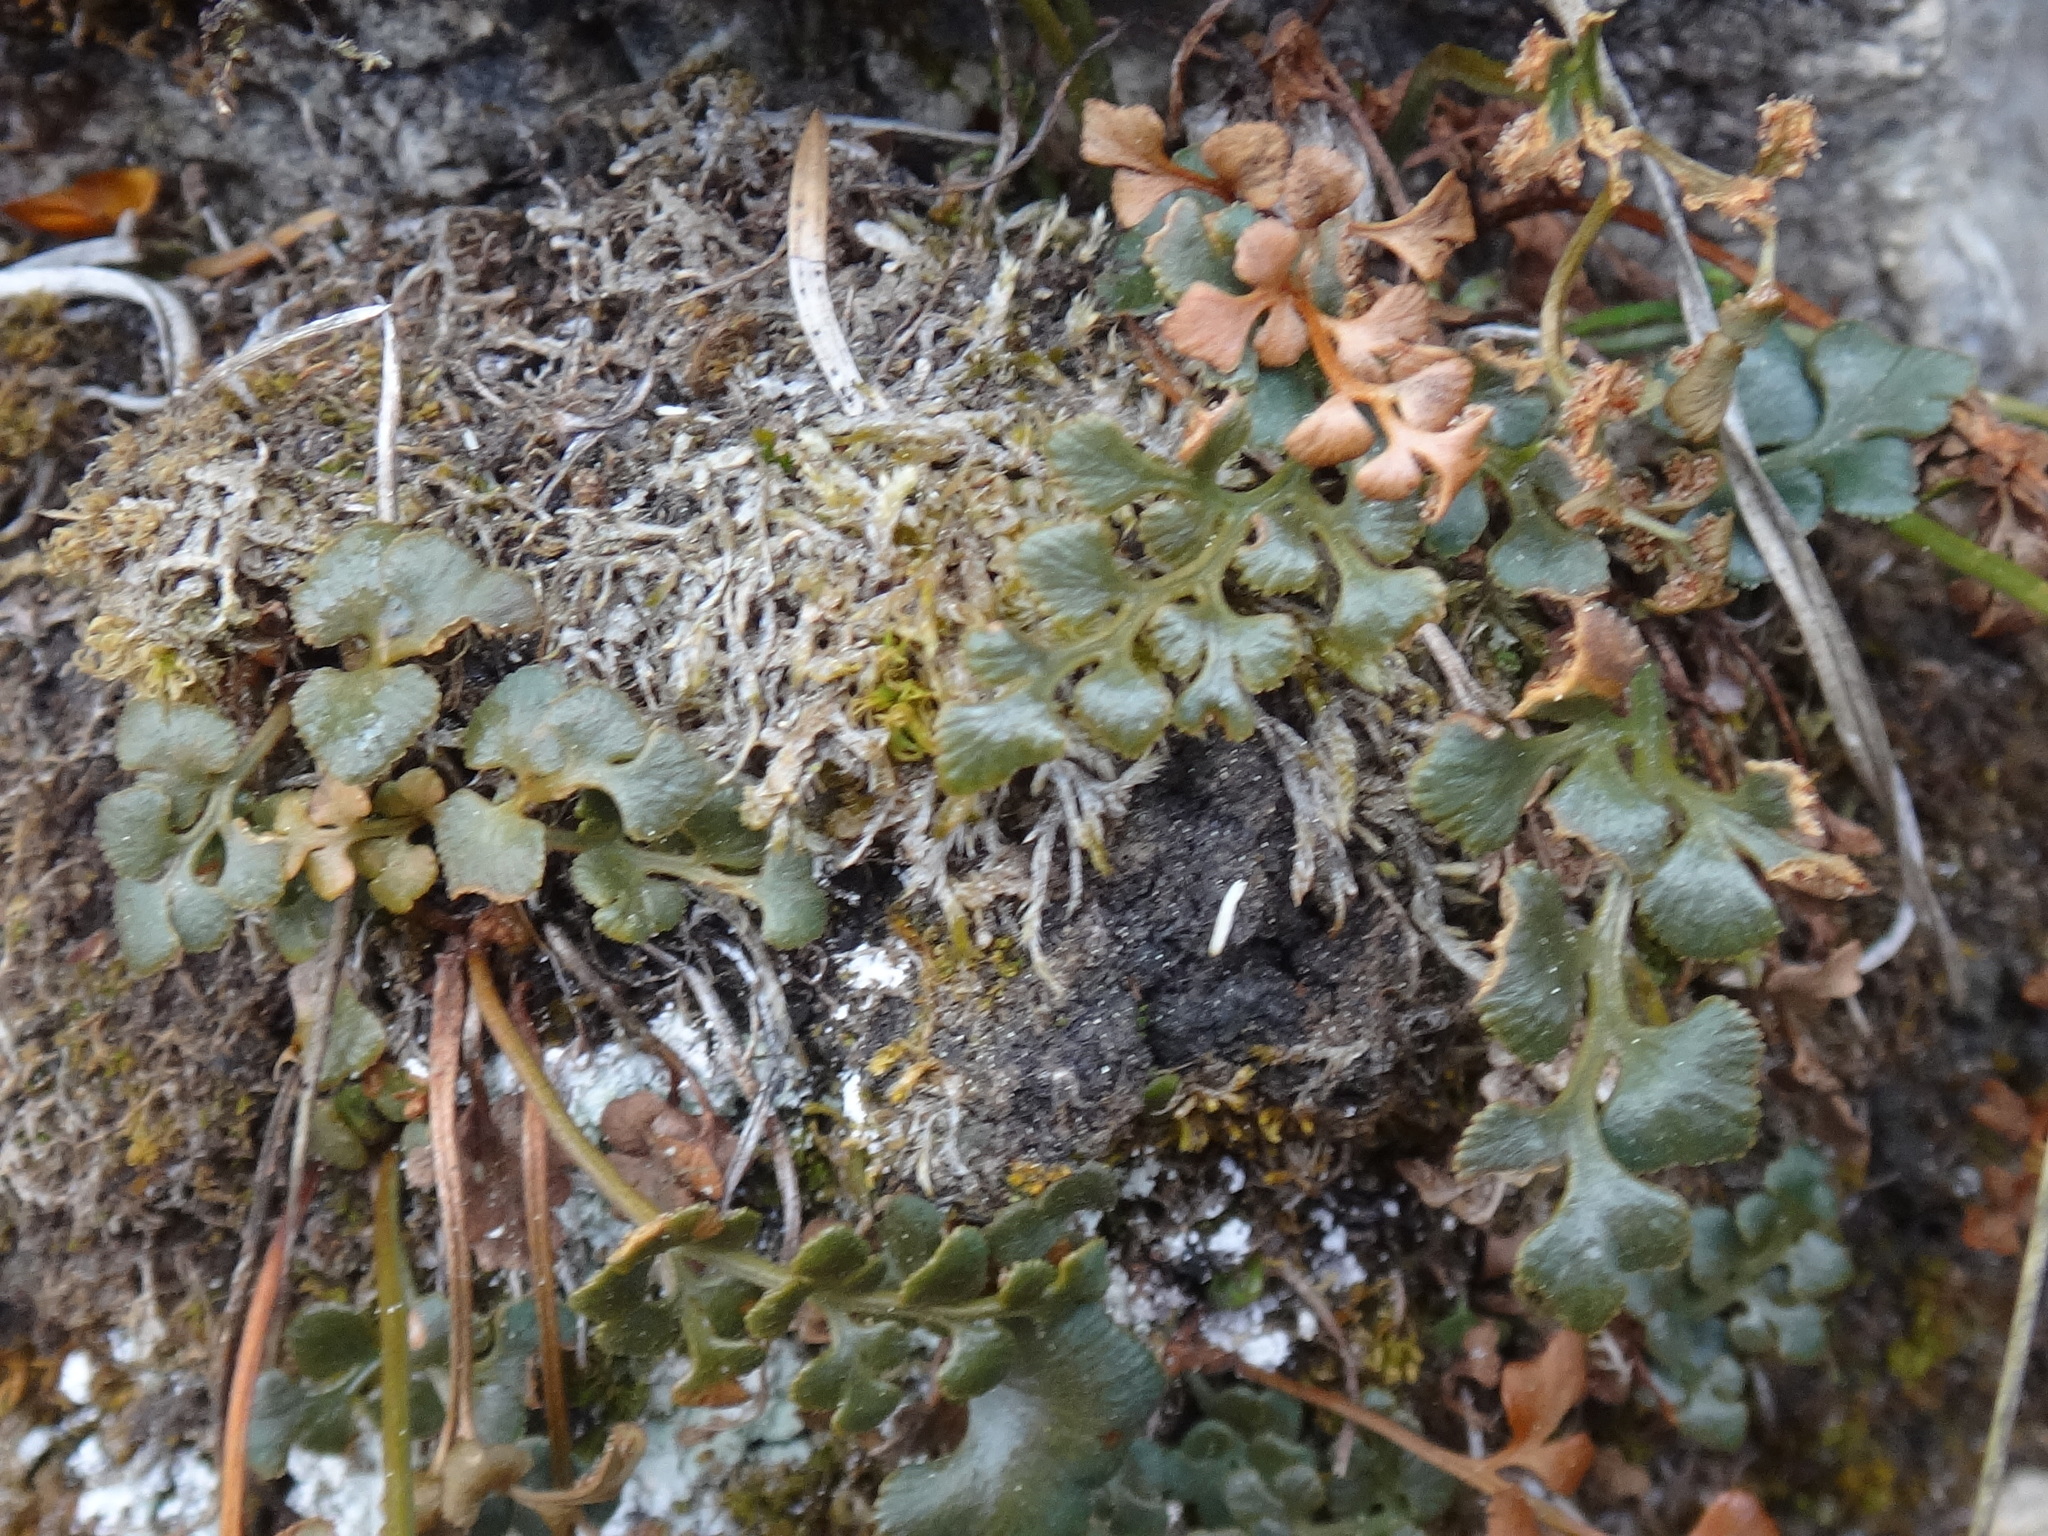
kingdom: Plantae
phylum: Tracheophyta
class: Polypodiopsida
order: Polypodiales
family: Aspleniaceae
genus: Asplenium
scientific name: Asplenium ruta-muraria
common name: Wall-rue
